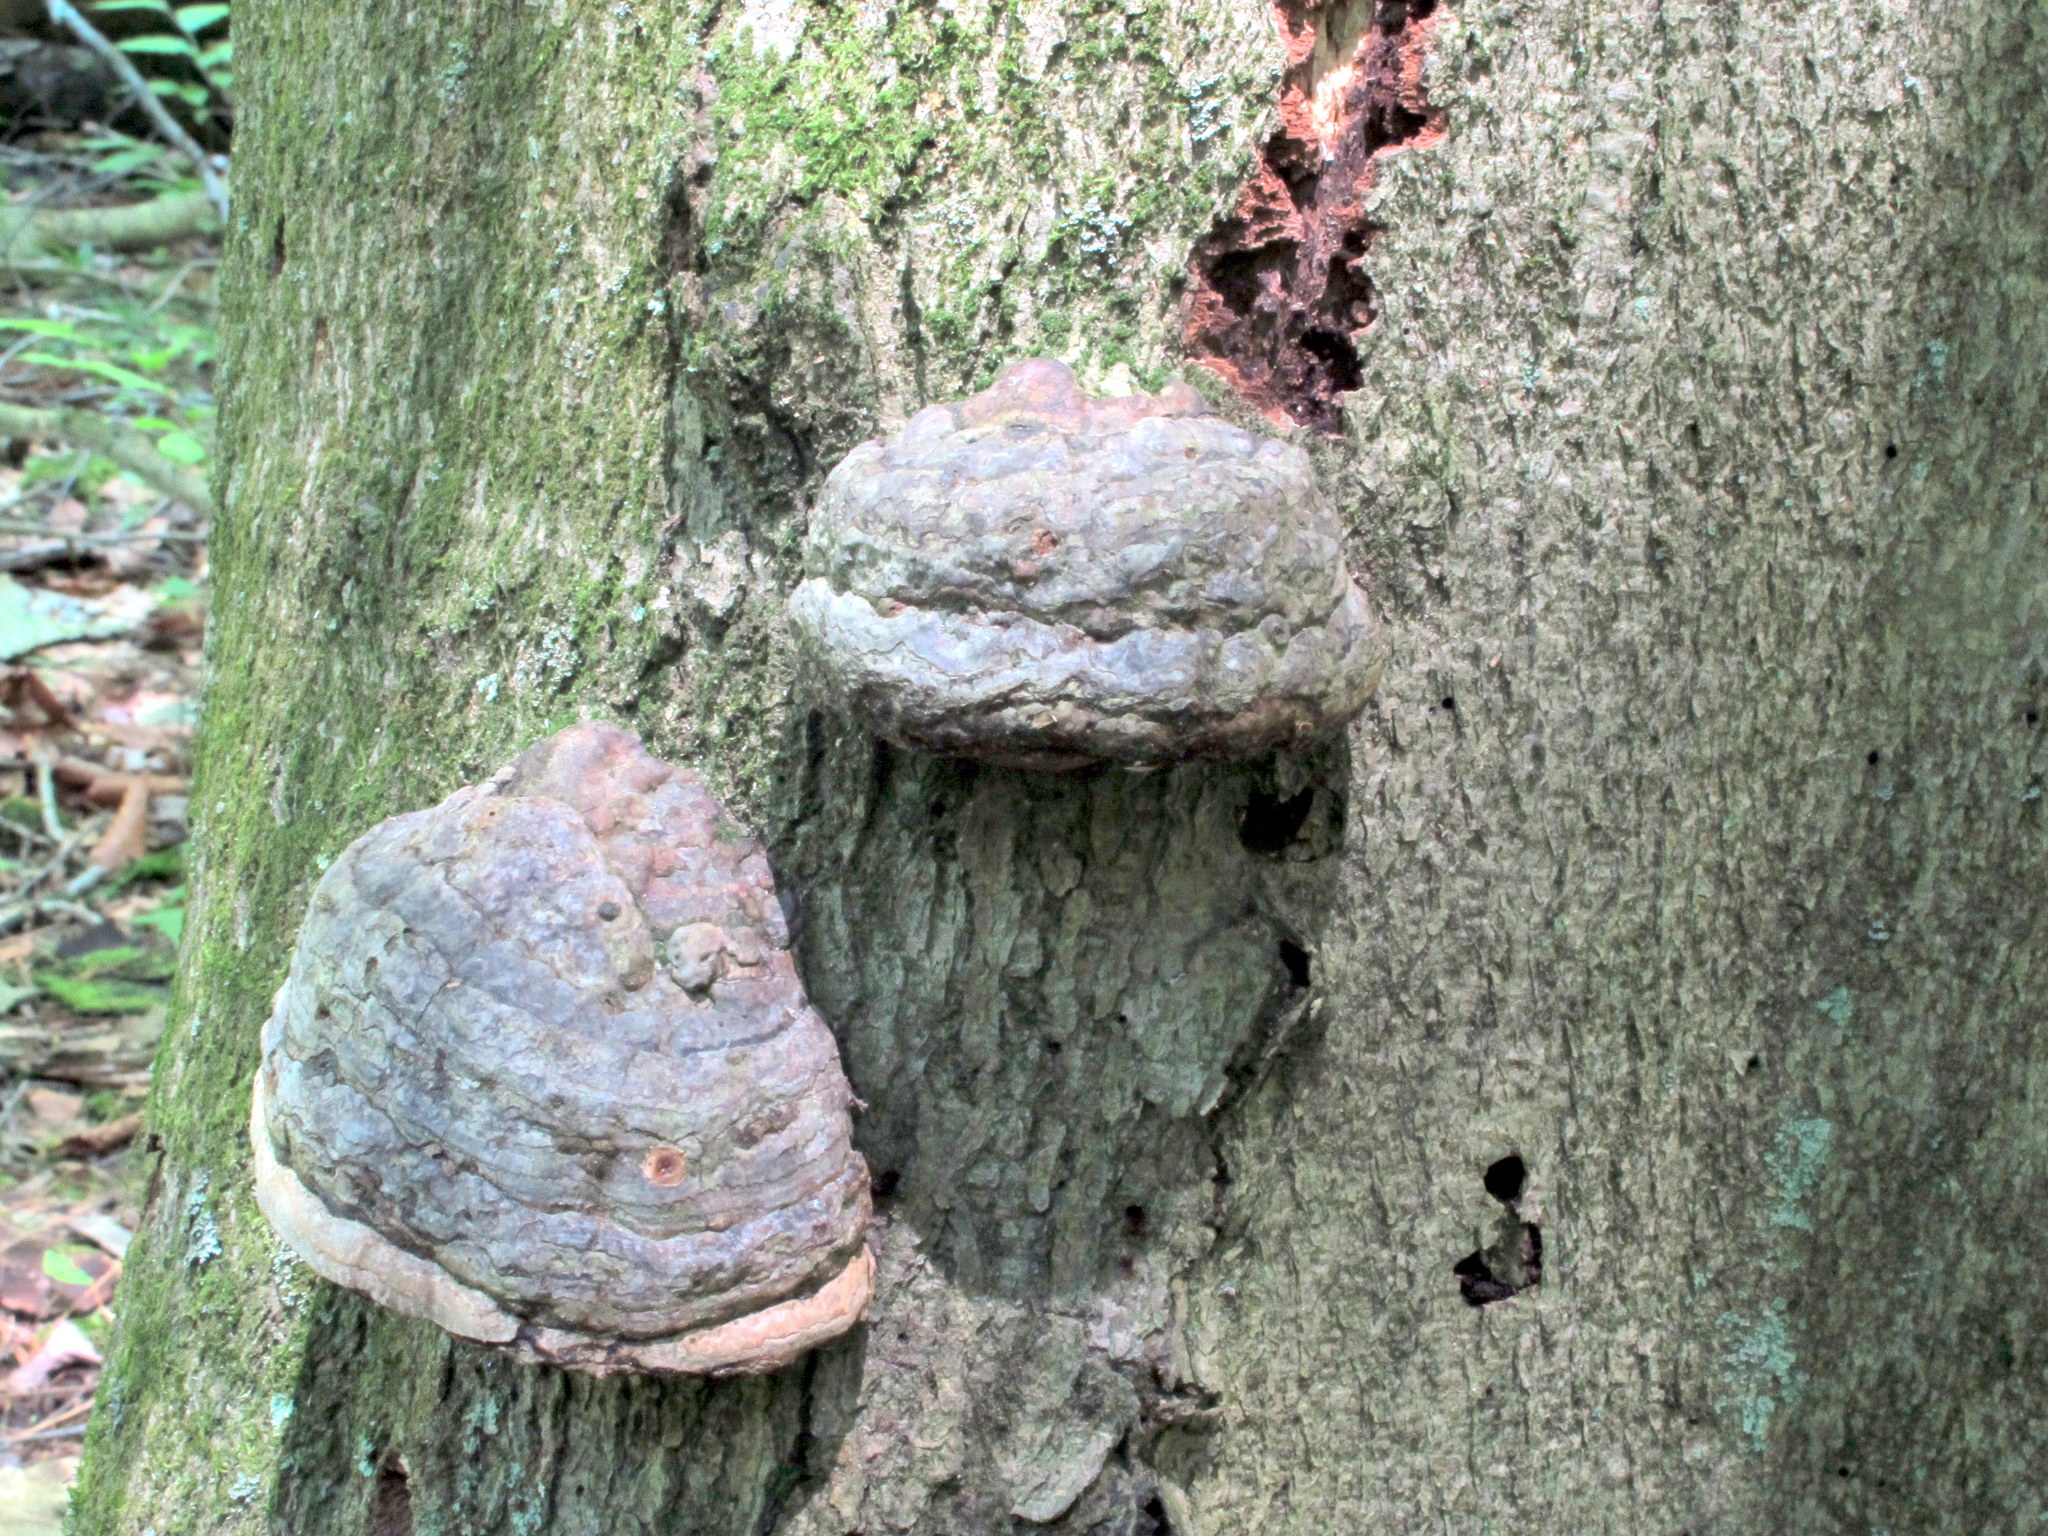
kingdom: Fungi
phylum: Basidiomycota
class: Agaricomycetes
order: Polyporales
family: Polyporaceae
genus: Fomes
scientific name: Fomes fomentarius
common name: Hoof fungus
